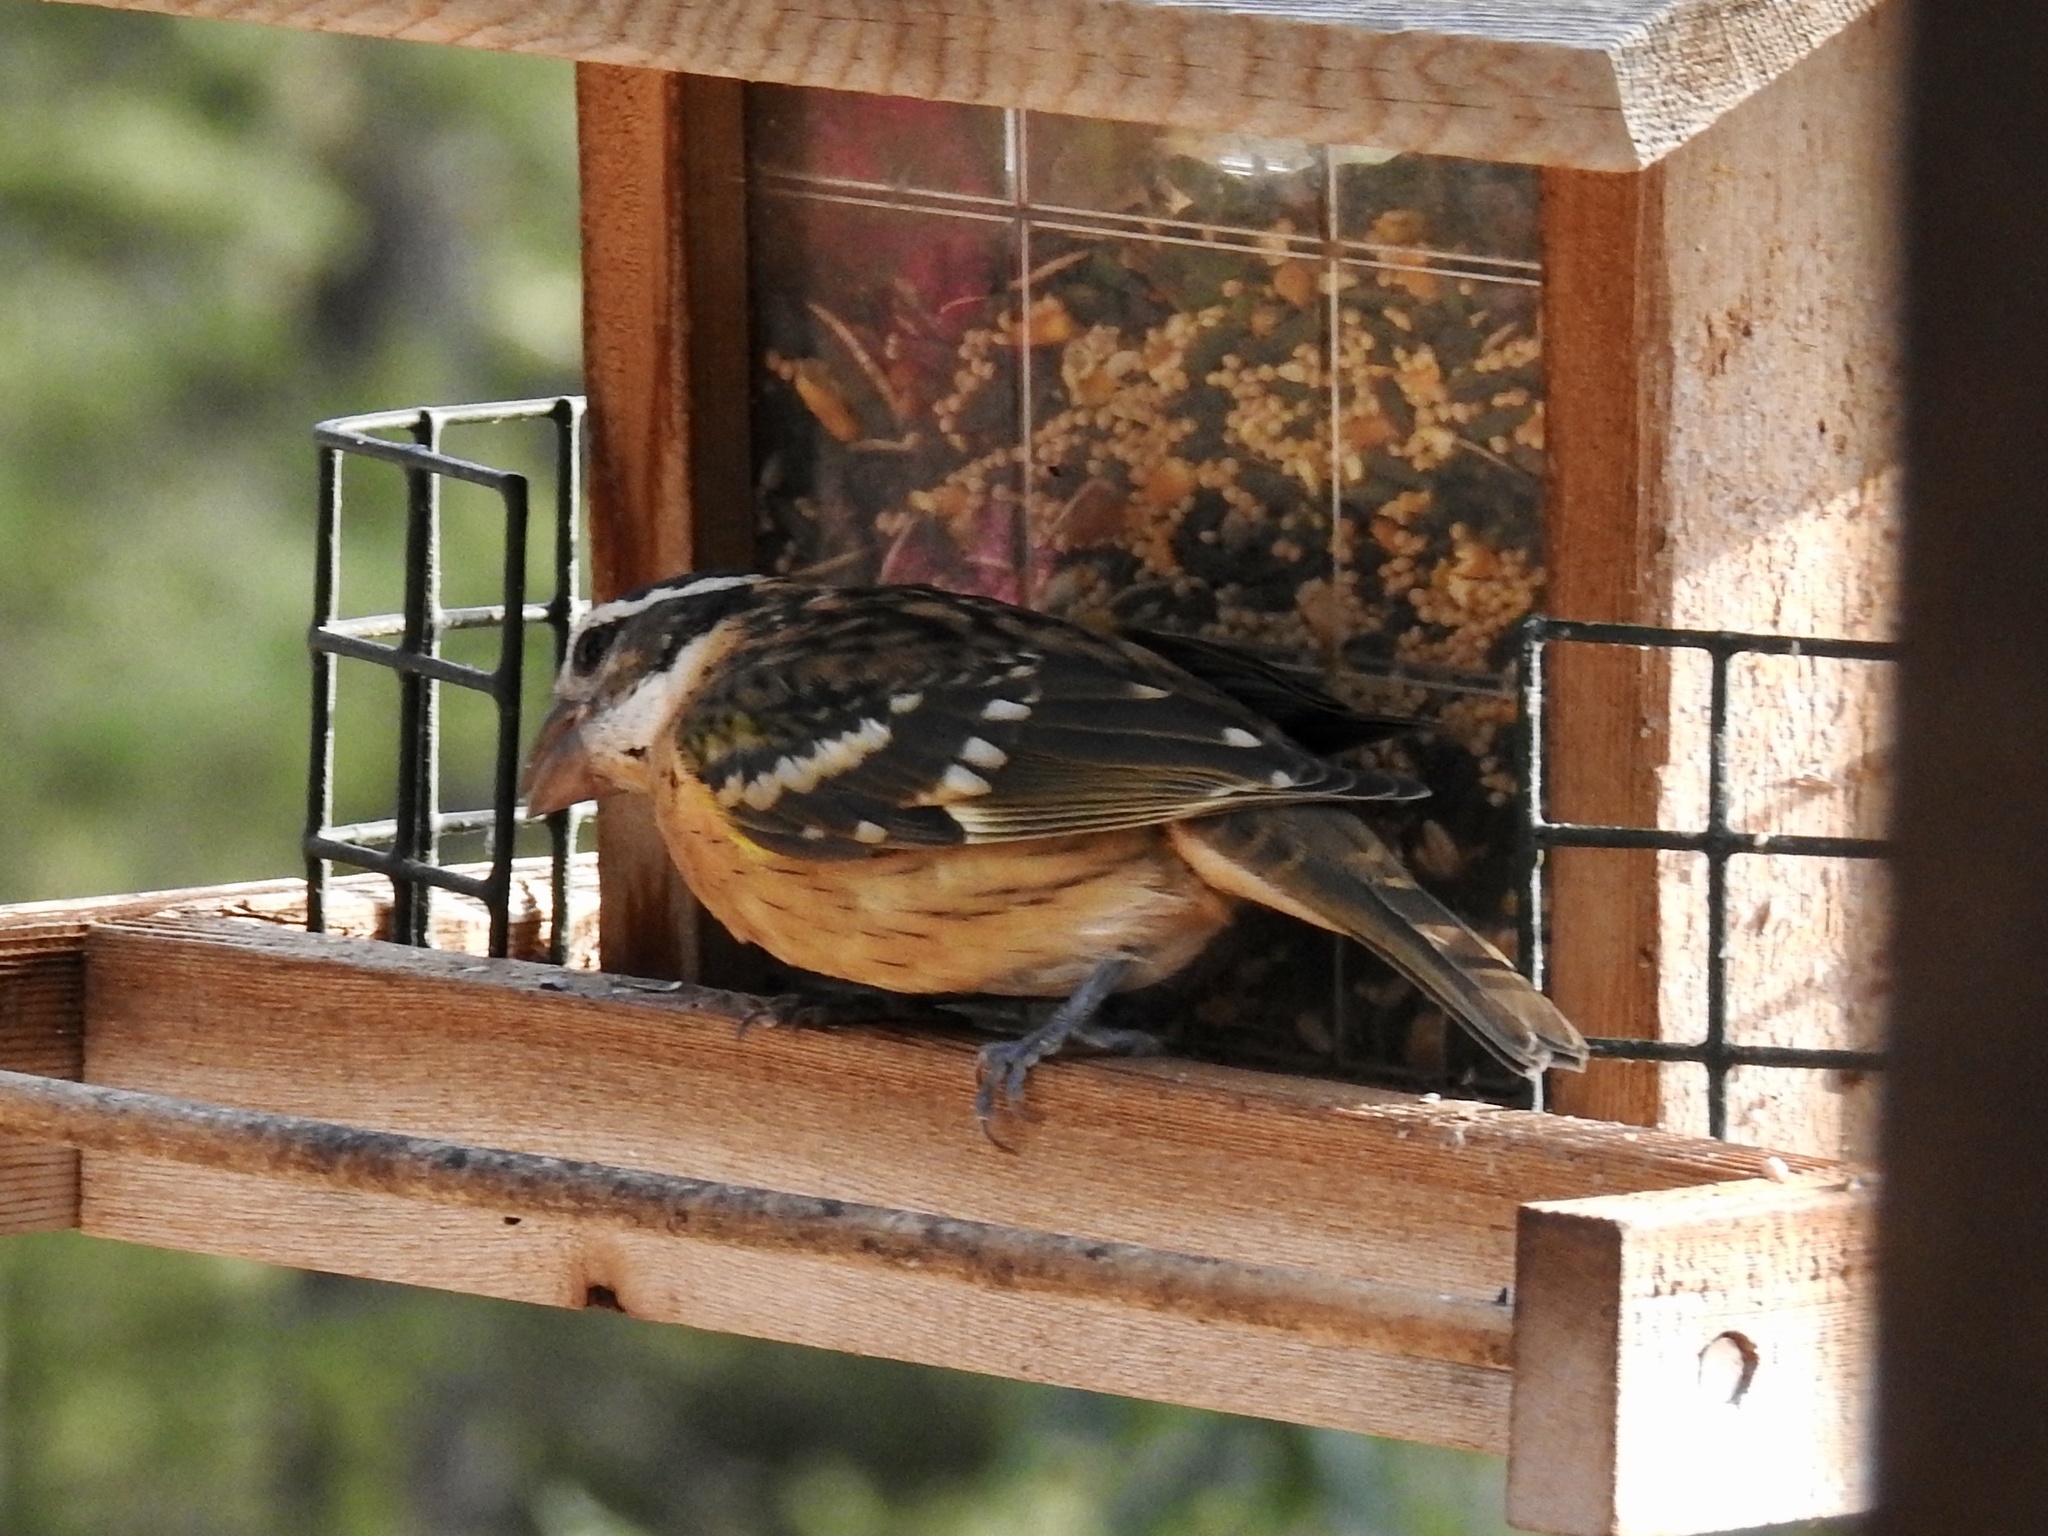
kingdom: Animalia
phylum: Chordata
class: Aves
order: Passeriformes
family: Cardinalidae
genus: Pheucticus
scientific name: Pheucticus melanocephalus
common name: Black-headed grosbeak
